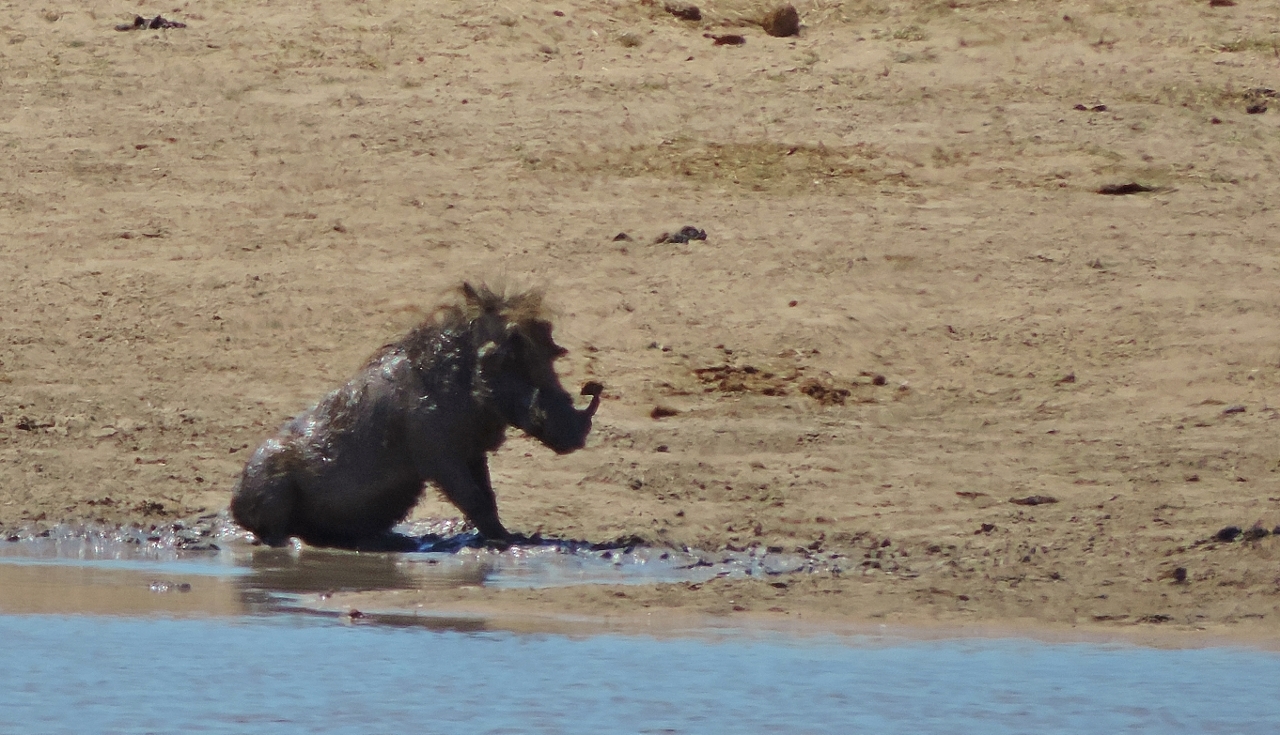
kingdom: Animalia
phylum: Chordata
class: Mammalia
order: Artiodactyla
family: Suidae
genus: Phacochoerus
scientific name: Phacochoerus africanus
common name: Common warthog
